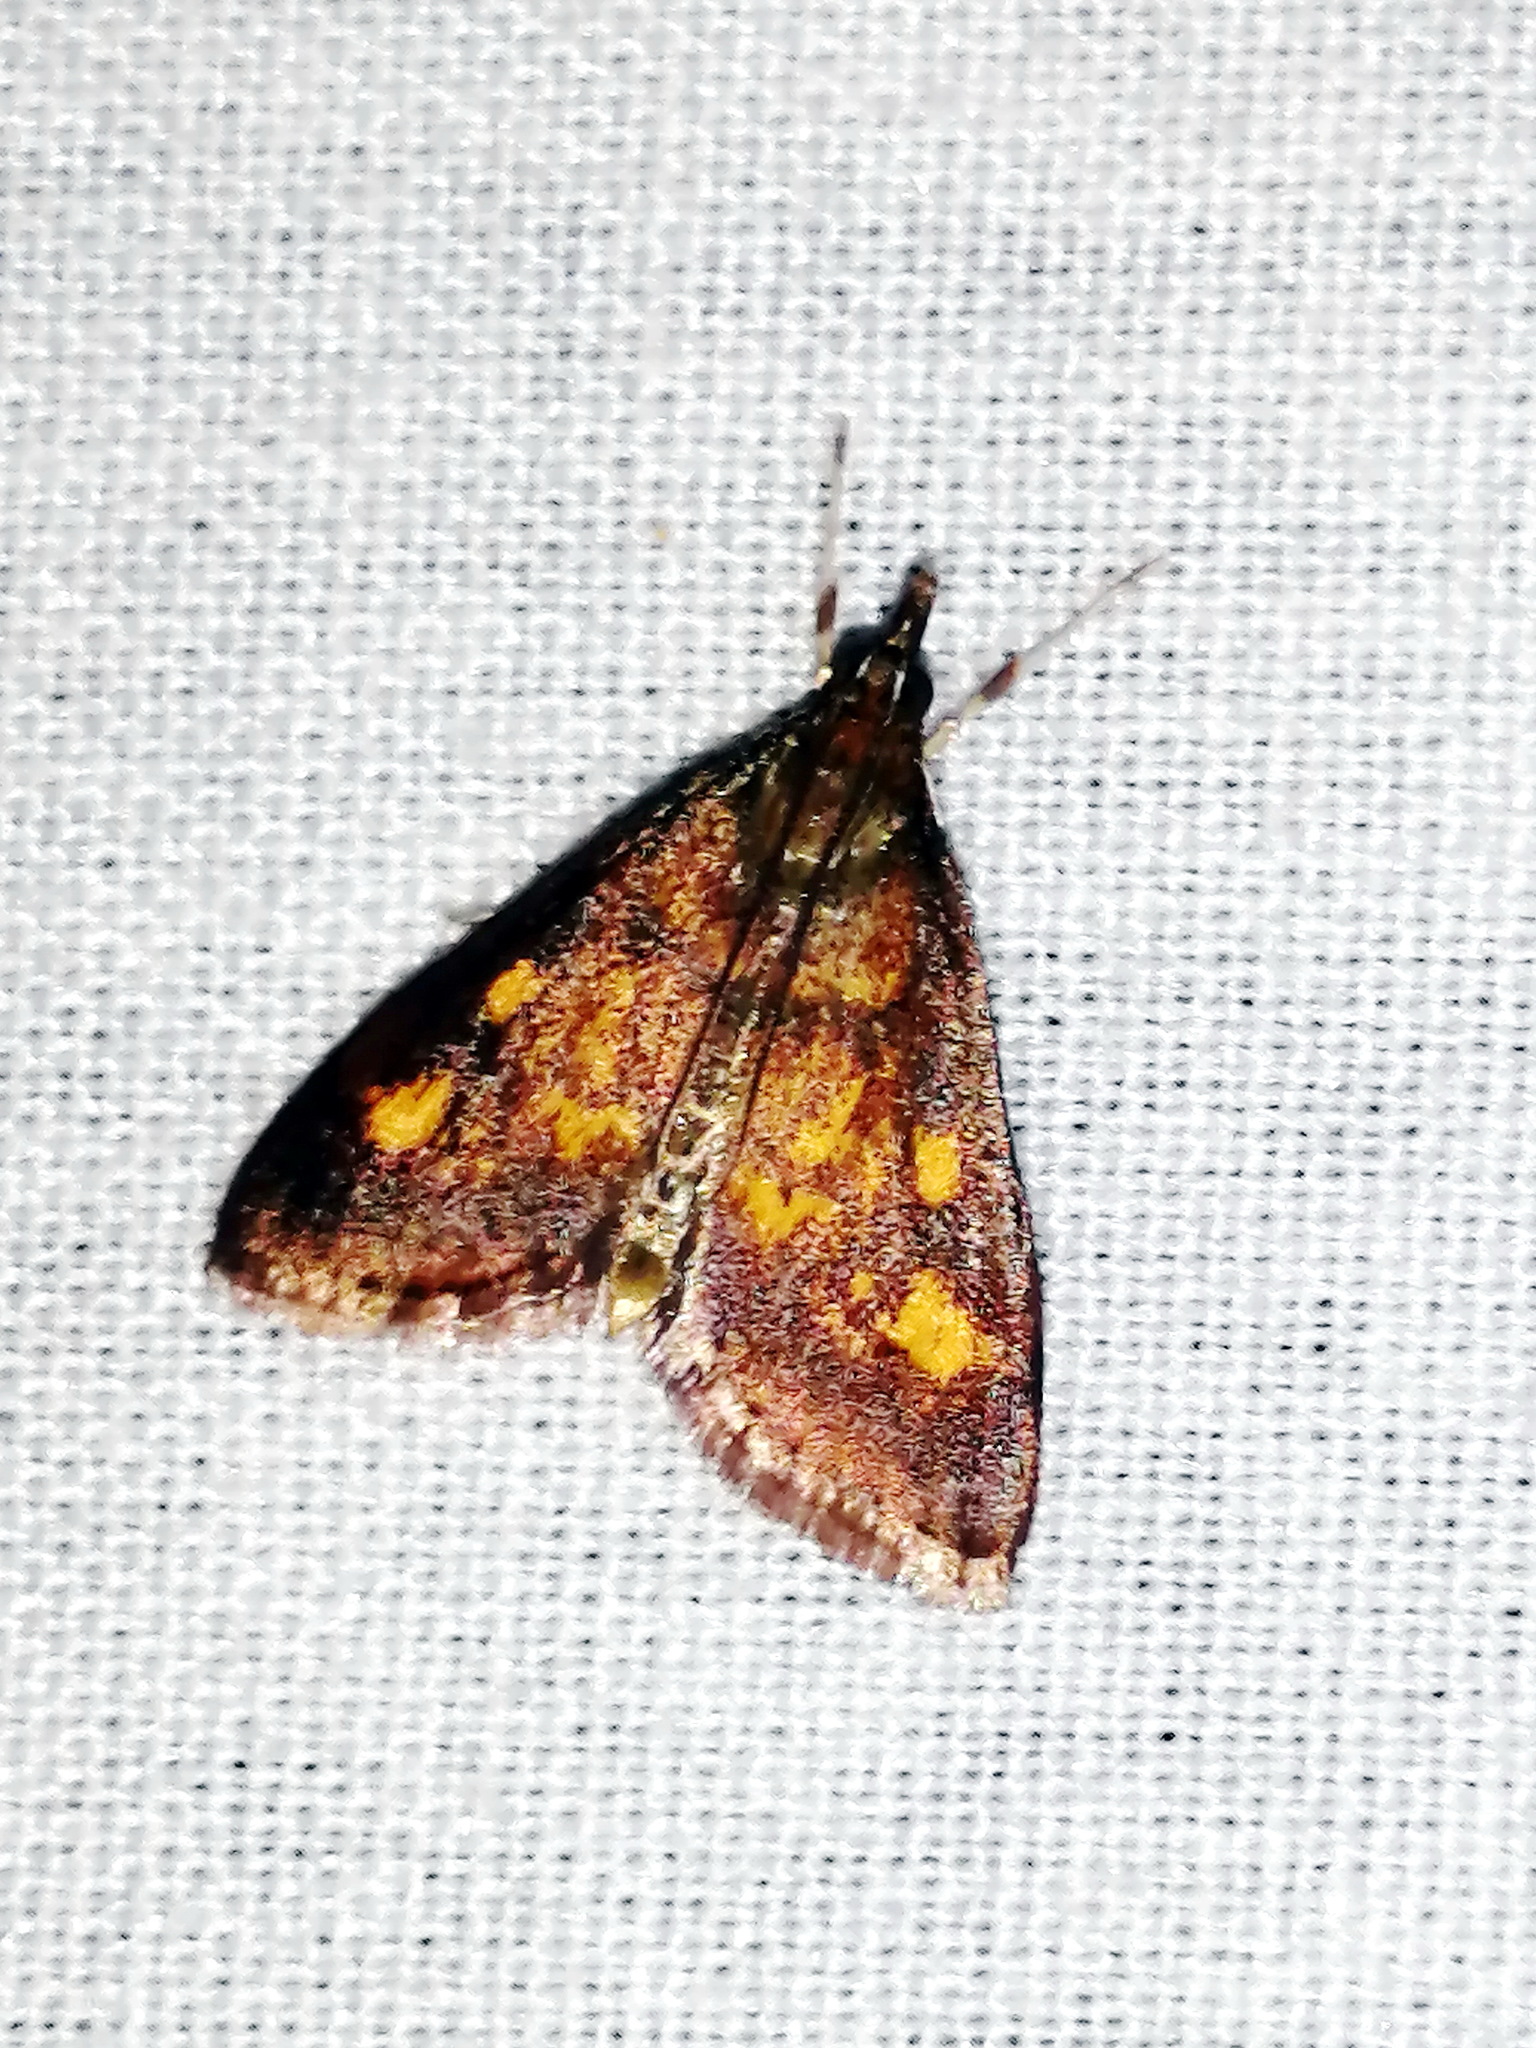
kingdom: Animalia
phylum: Arthropoda
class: Insecta
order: Lepidoptera
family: Crambidae
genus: Pyrausta
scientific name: Pyrausta acrionalis
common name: Mint-loving pyrausta moth
